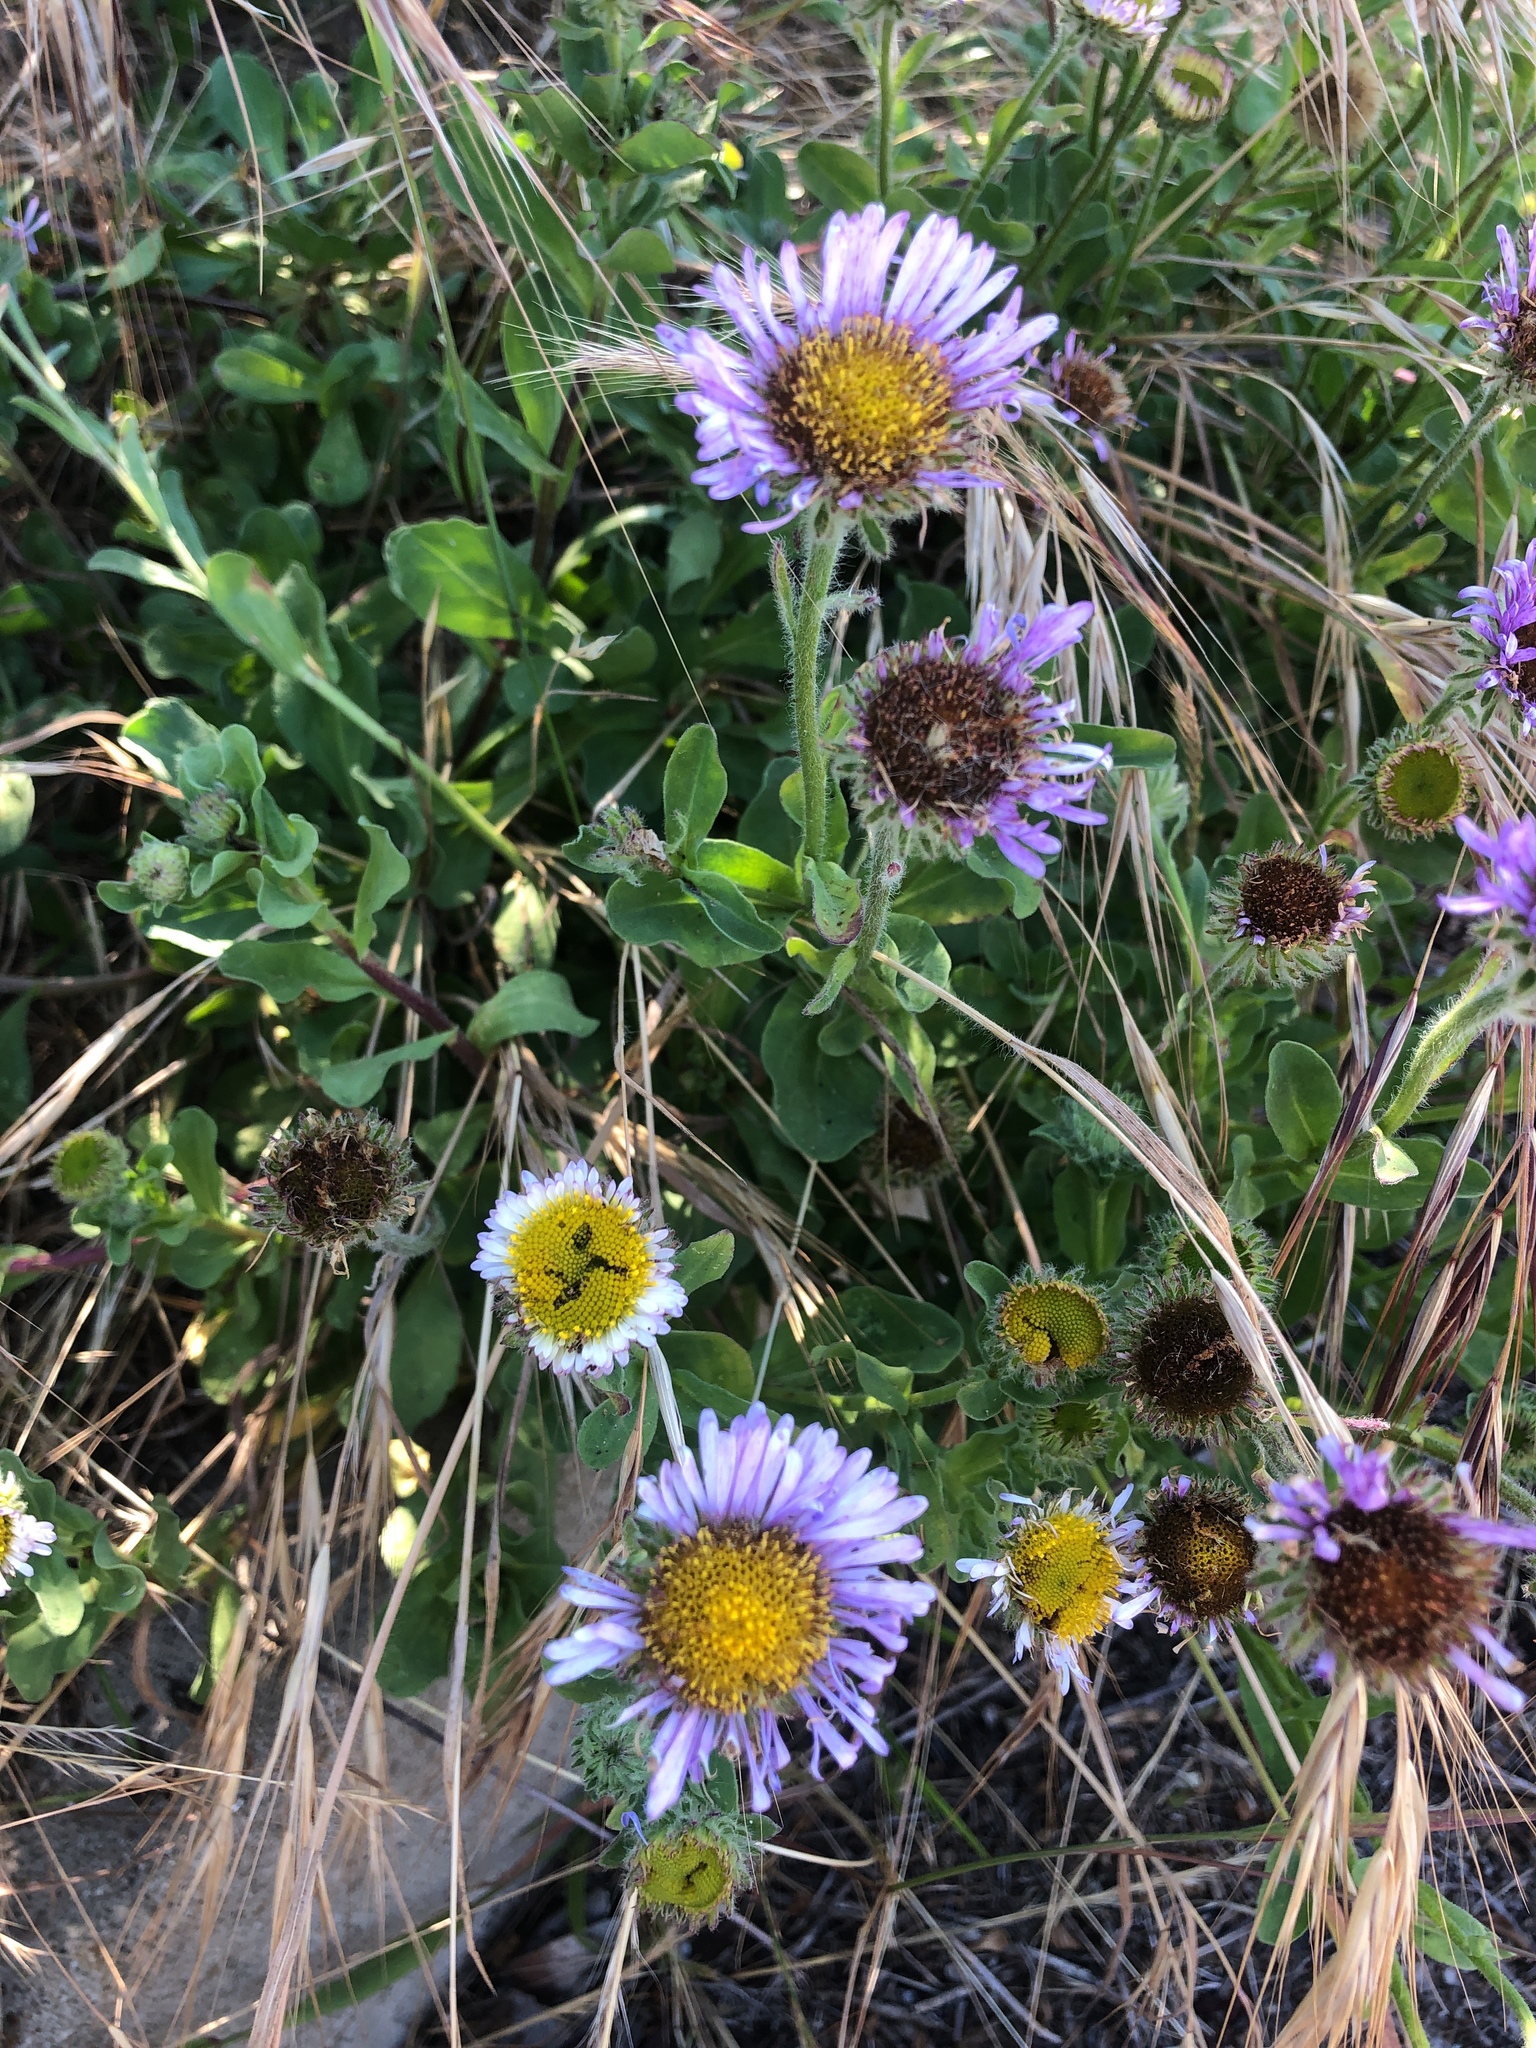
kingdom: Plantae
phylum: Tracheophyta
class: Magnoliopsida
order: Asterales
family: Asteraceae
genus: Erigeron
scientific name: Erigeron glaucus
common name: Seaside daisy
